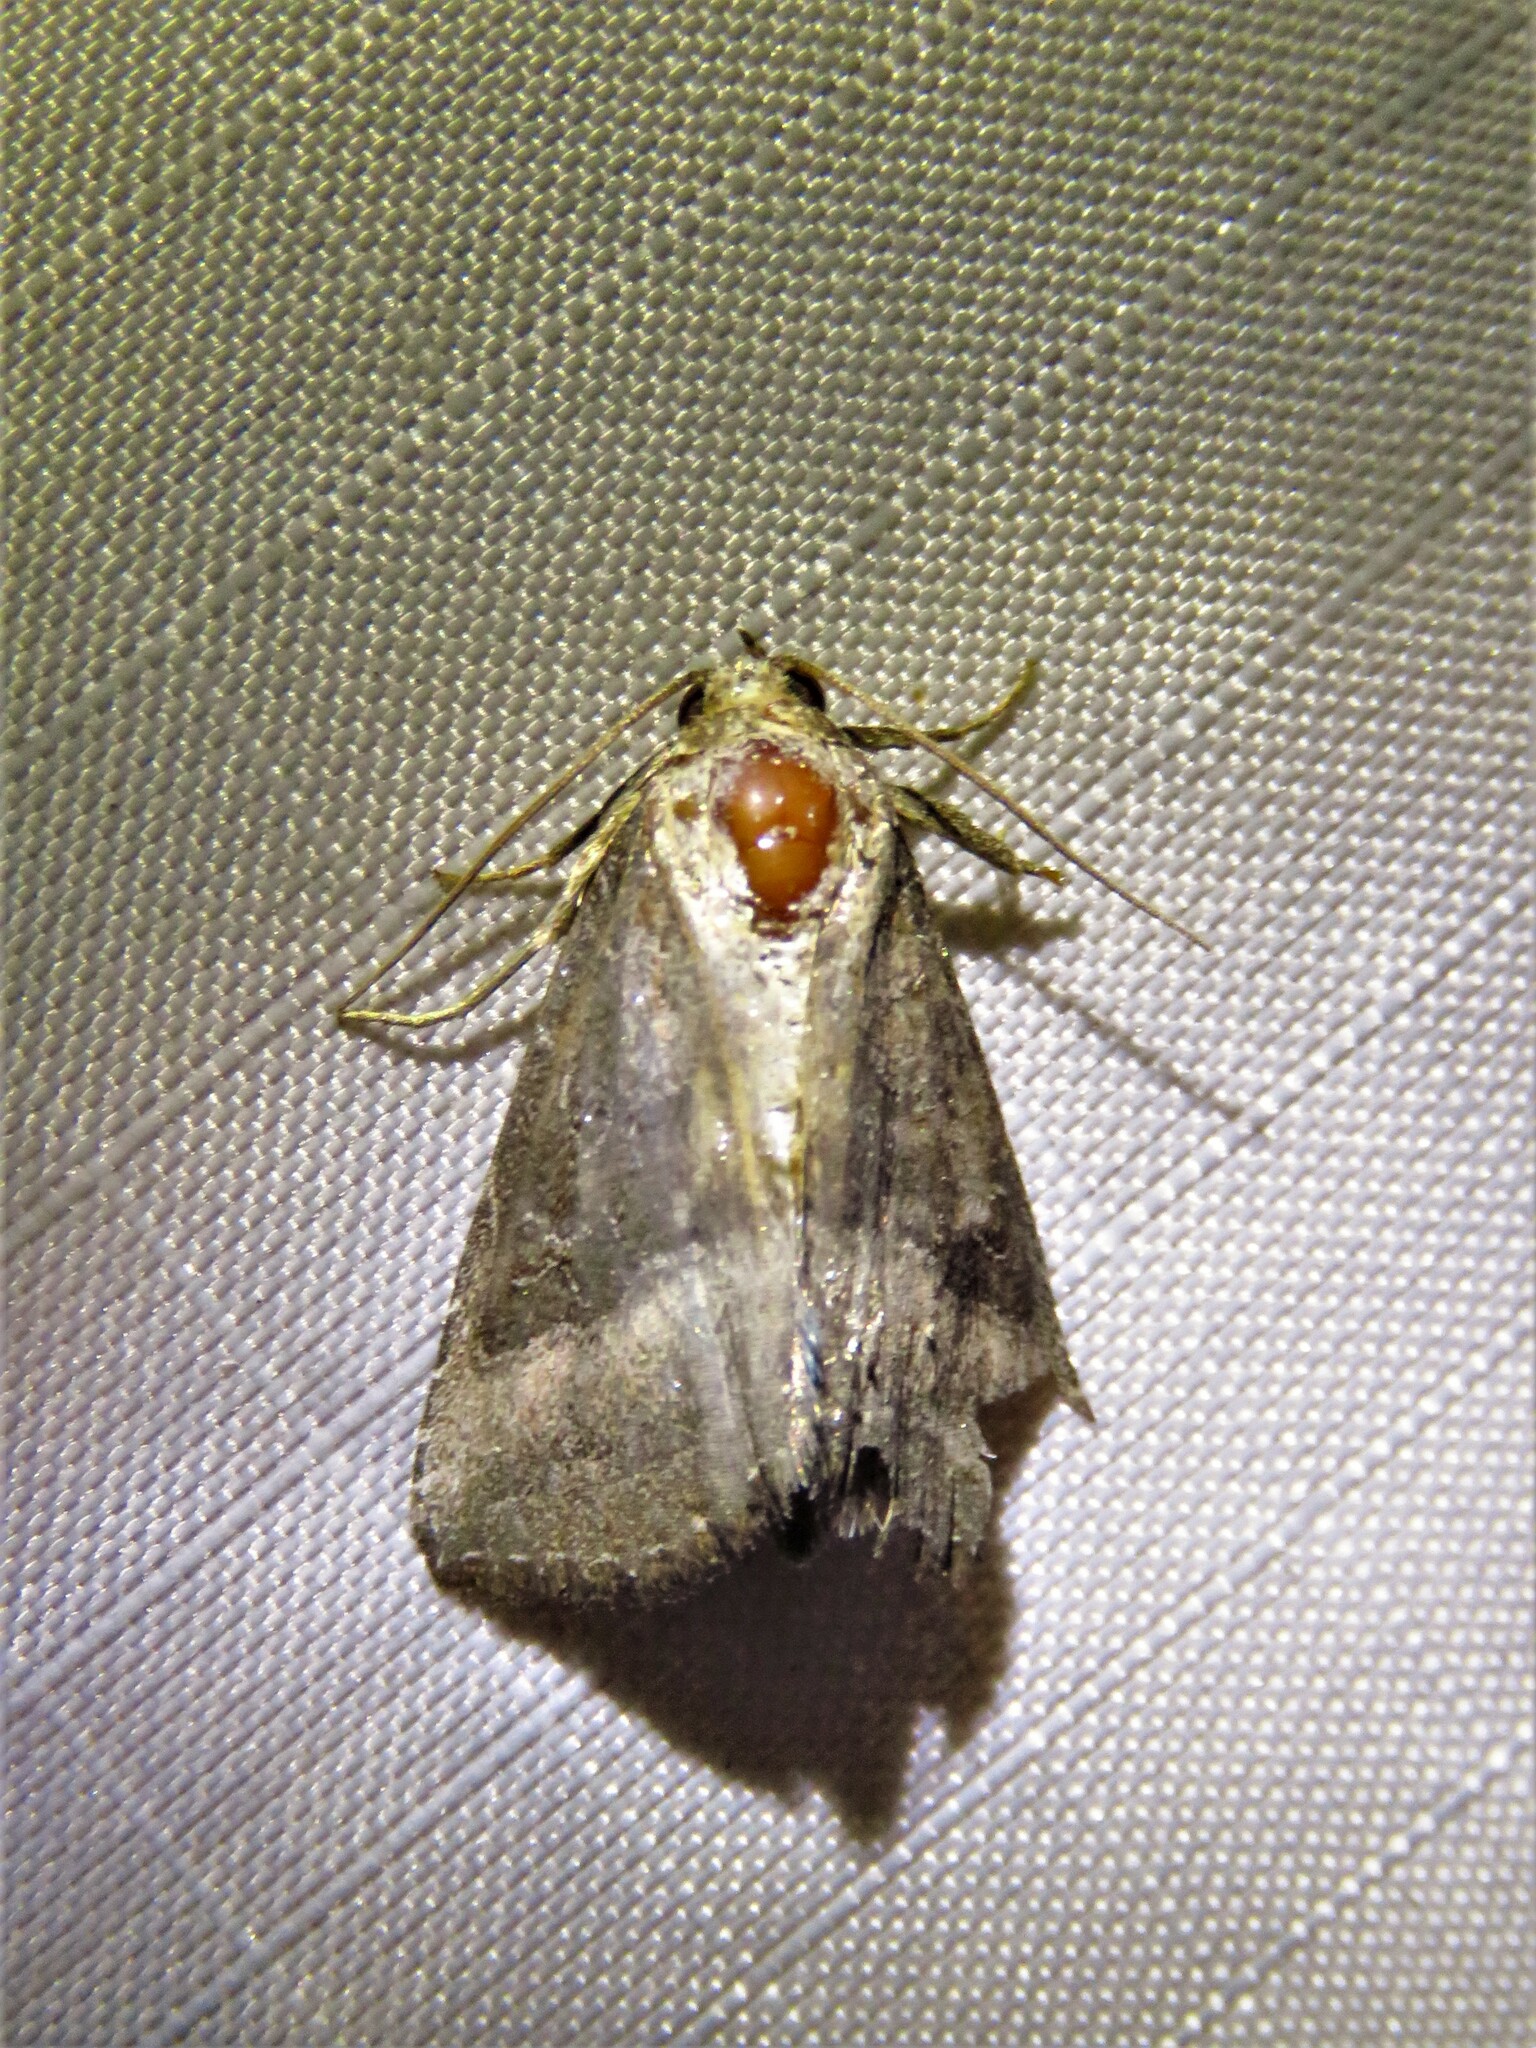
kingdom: Animalia
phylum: Arthropoda
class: Insecta
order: Lepidoptera
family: Noctuidae
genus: Ogdoconta
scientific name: Ogdoconta cinereola
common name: Common pinkband
